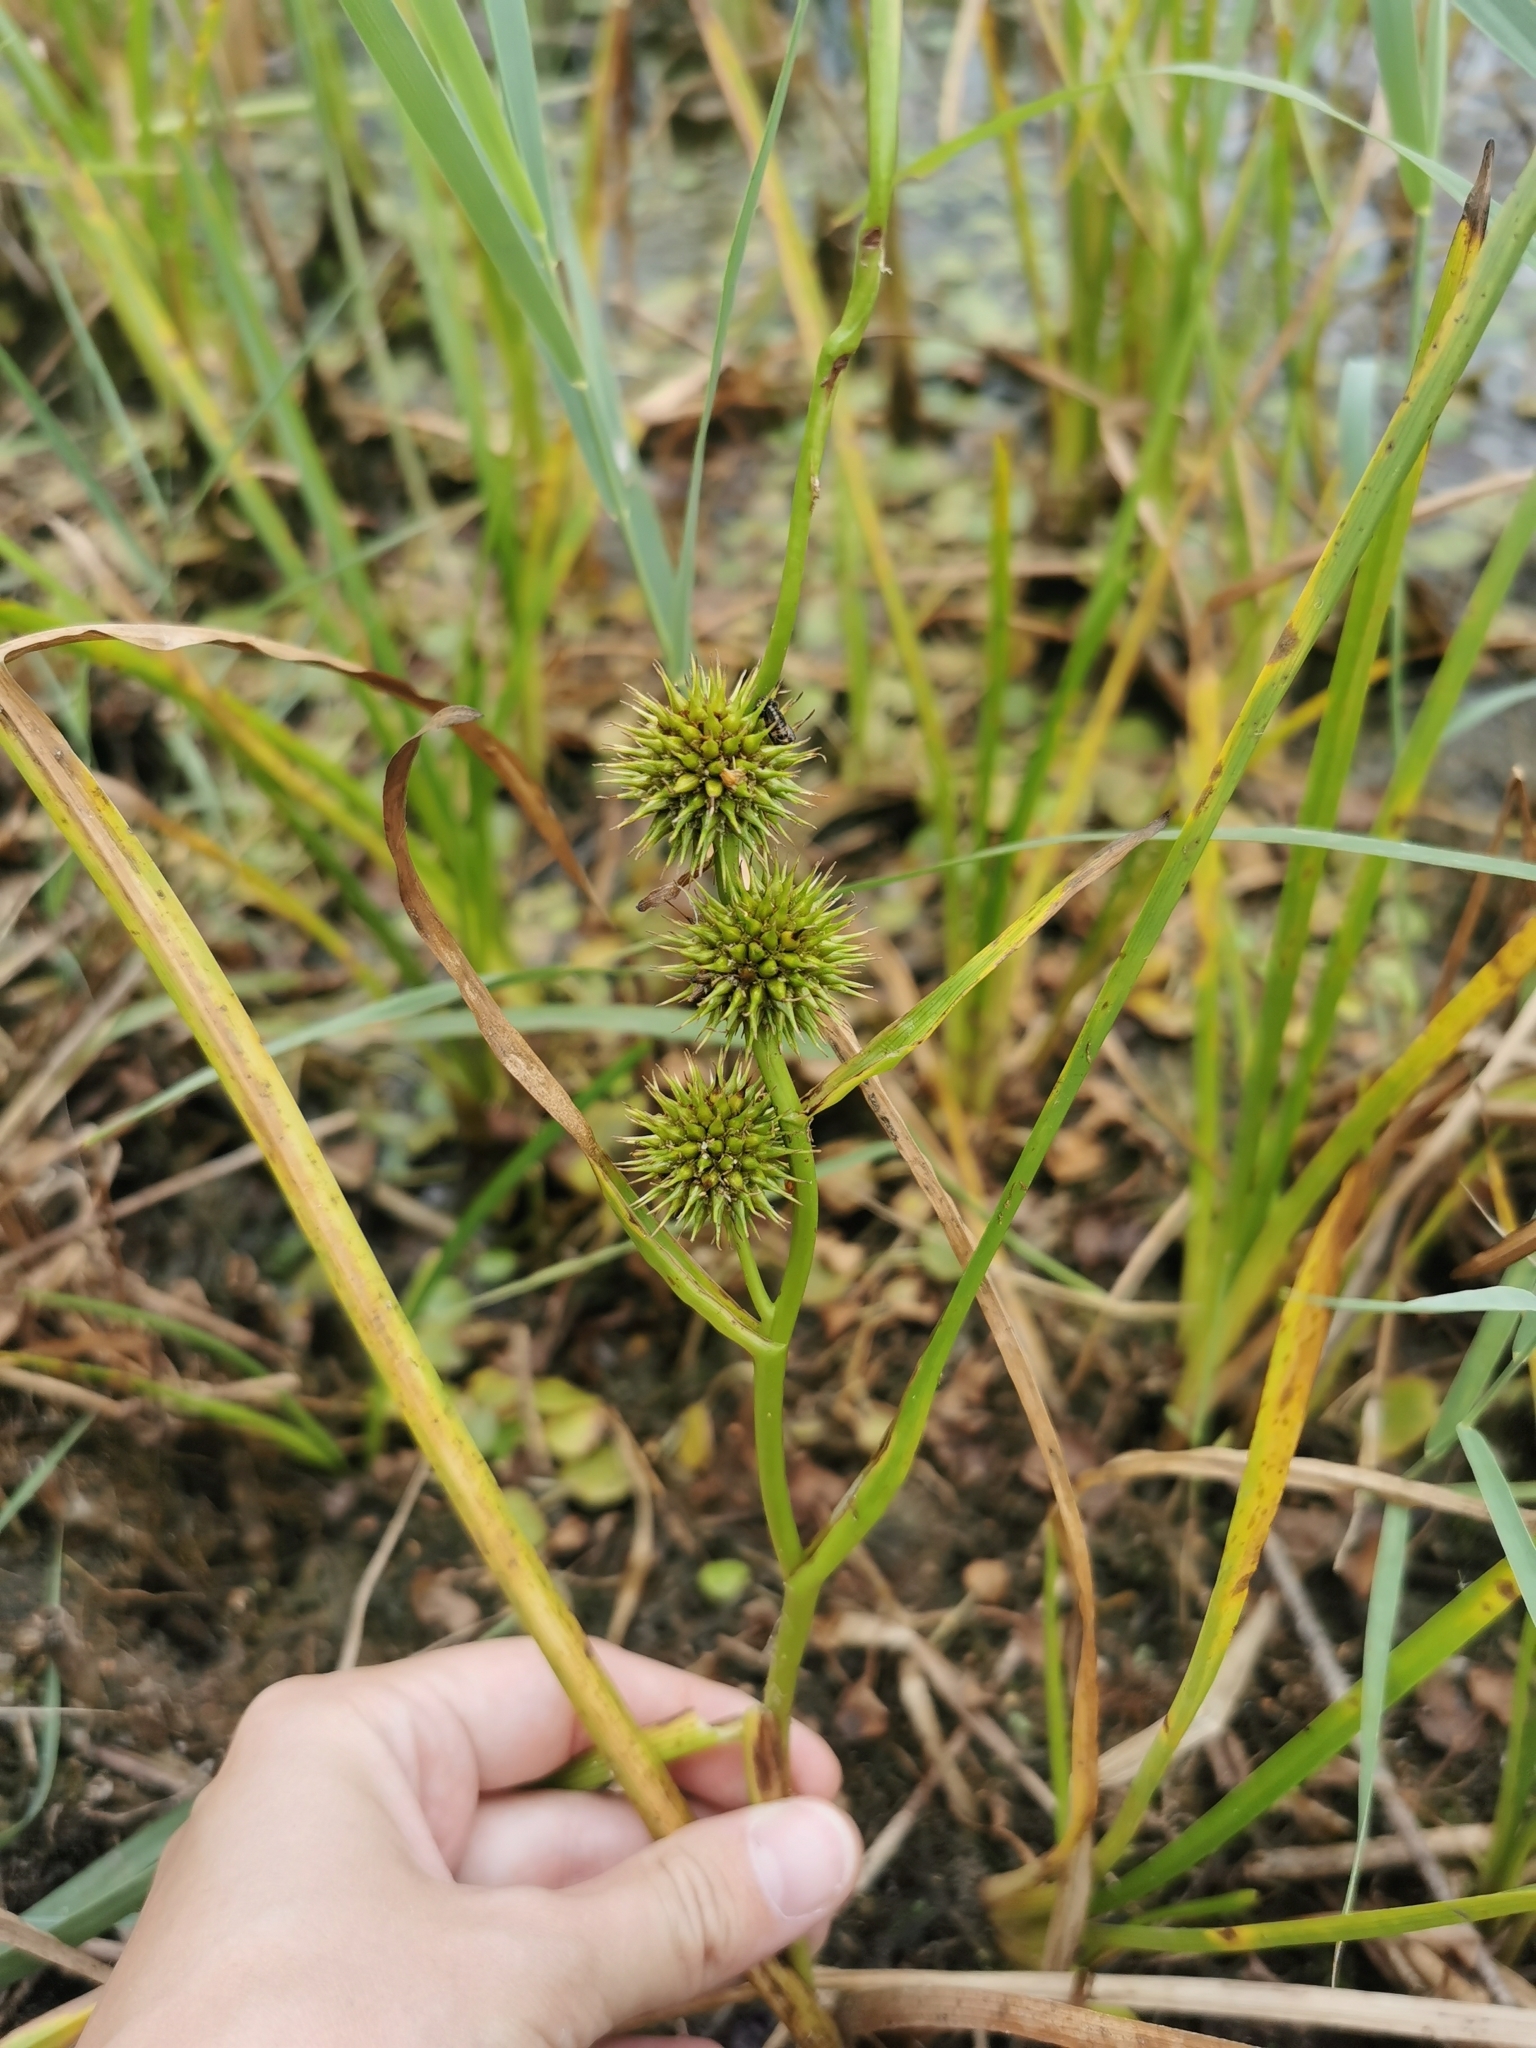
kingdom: Plantae
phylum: Tracheophyta
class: Liliopsida
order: Poales
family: Typhaceae
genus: Sparganium
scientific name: Sparganium emersum
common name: Unbranched bur-reed
